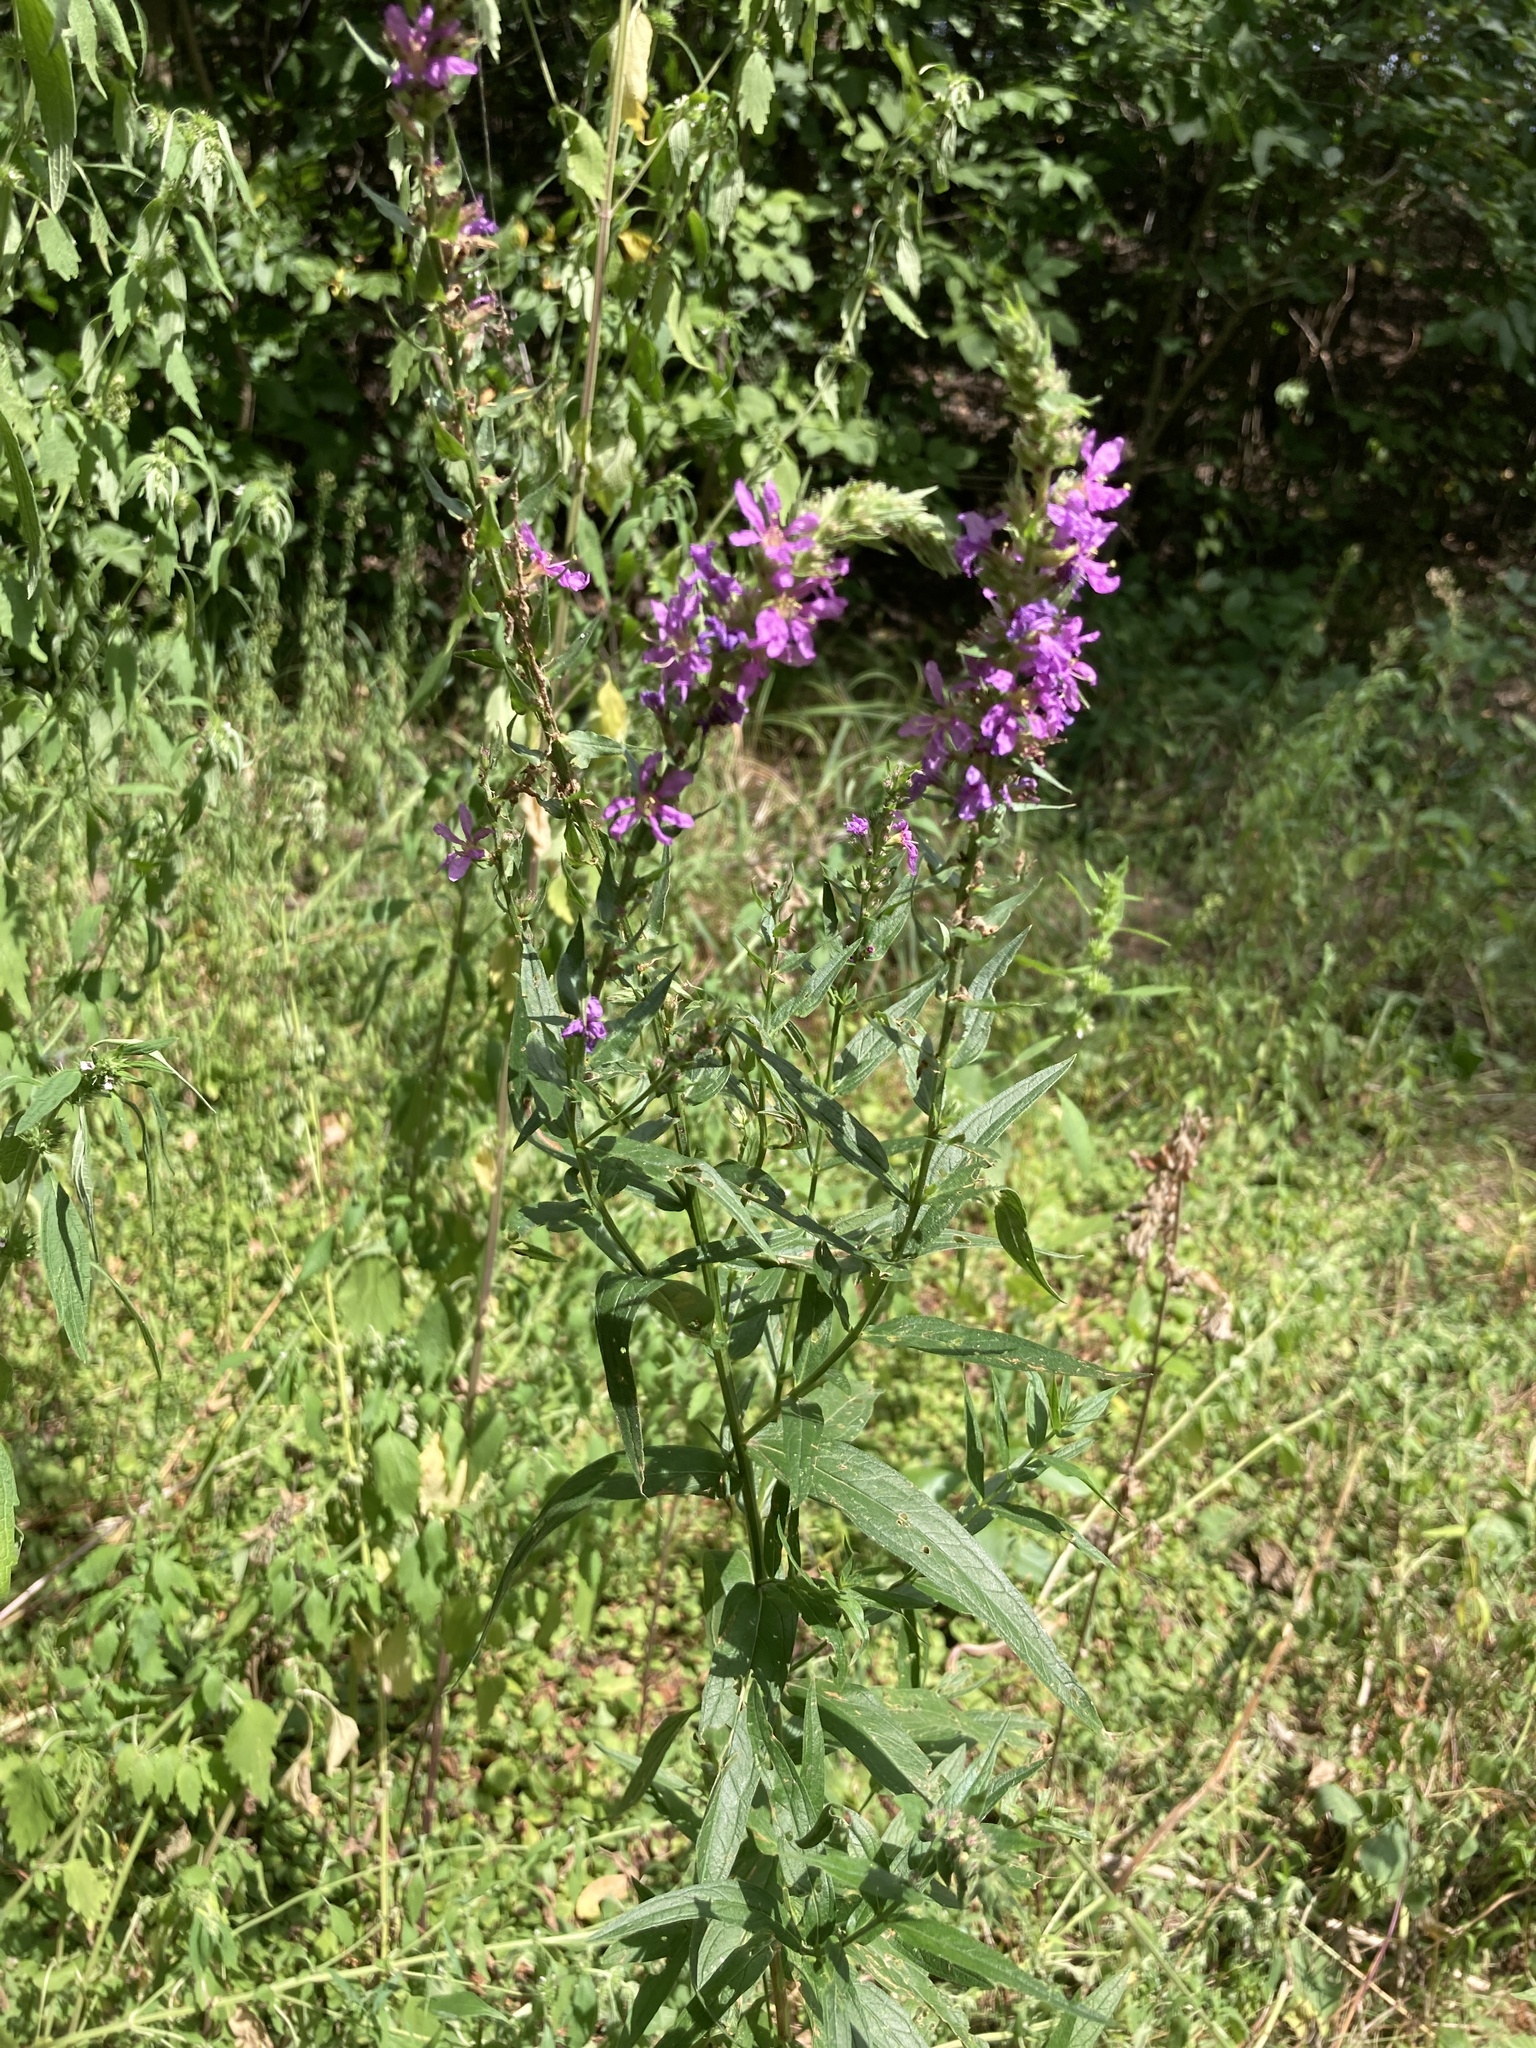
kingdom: Plantae
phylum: Tracheophyta
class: Magnoliopsida
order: Myrtales
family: Lythraceae
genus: Lythrum
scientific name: Lythrum salicaria
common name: Purple loosestrife
